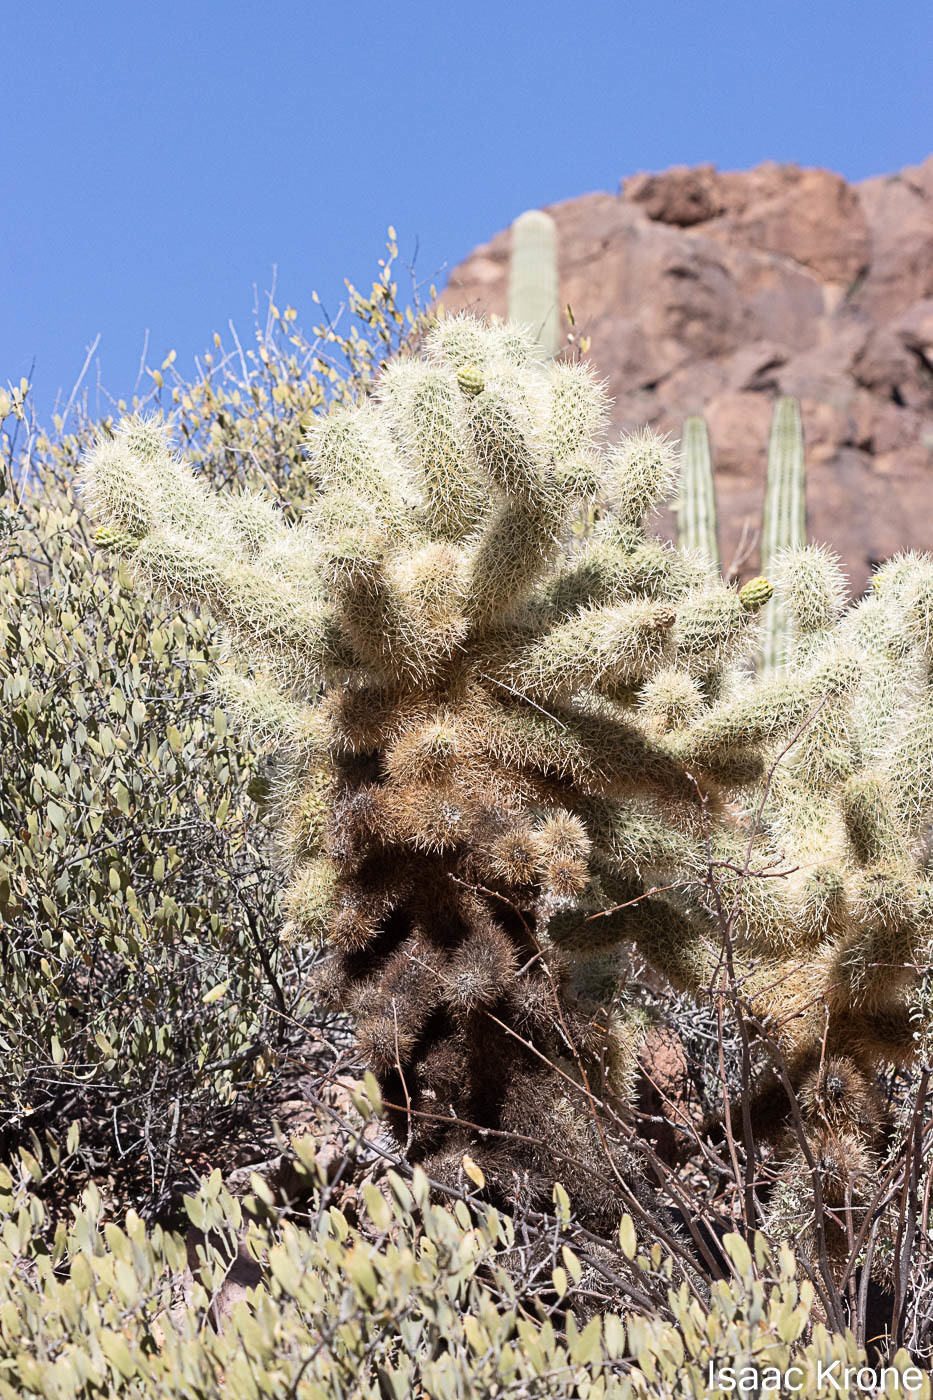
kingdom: Plantae
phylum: Tracheophyta
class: Magnoliopsida
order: Caryophyllales
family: Cactaceae
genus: Cylindropuntia
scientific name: Cylindropuntia fosbergii
